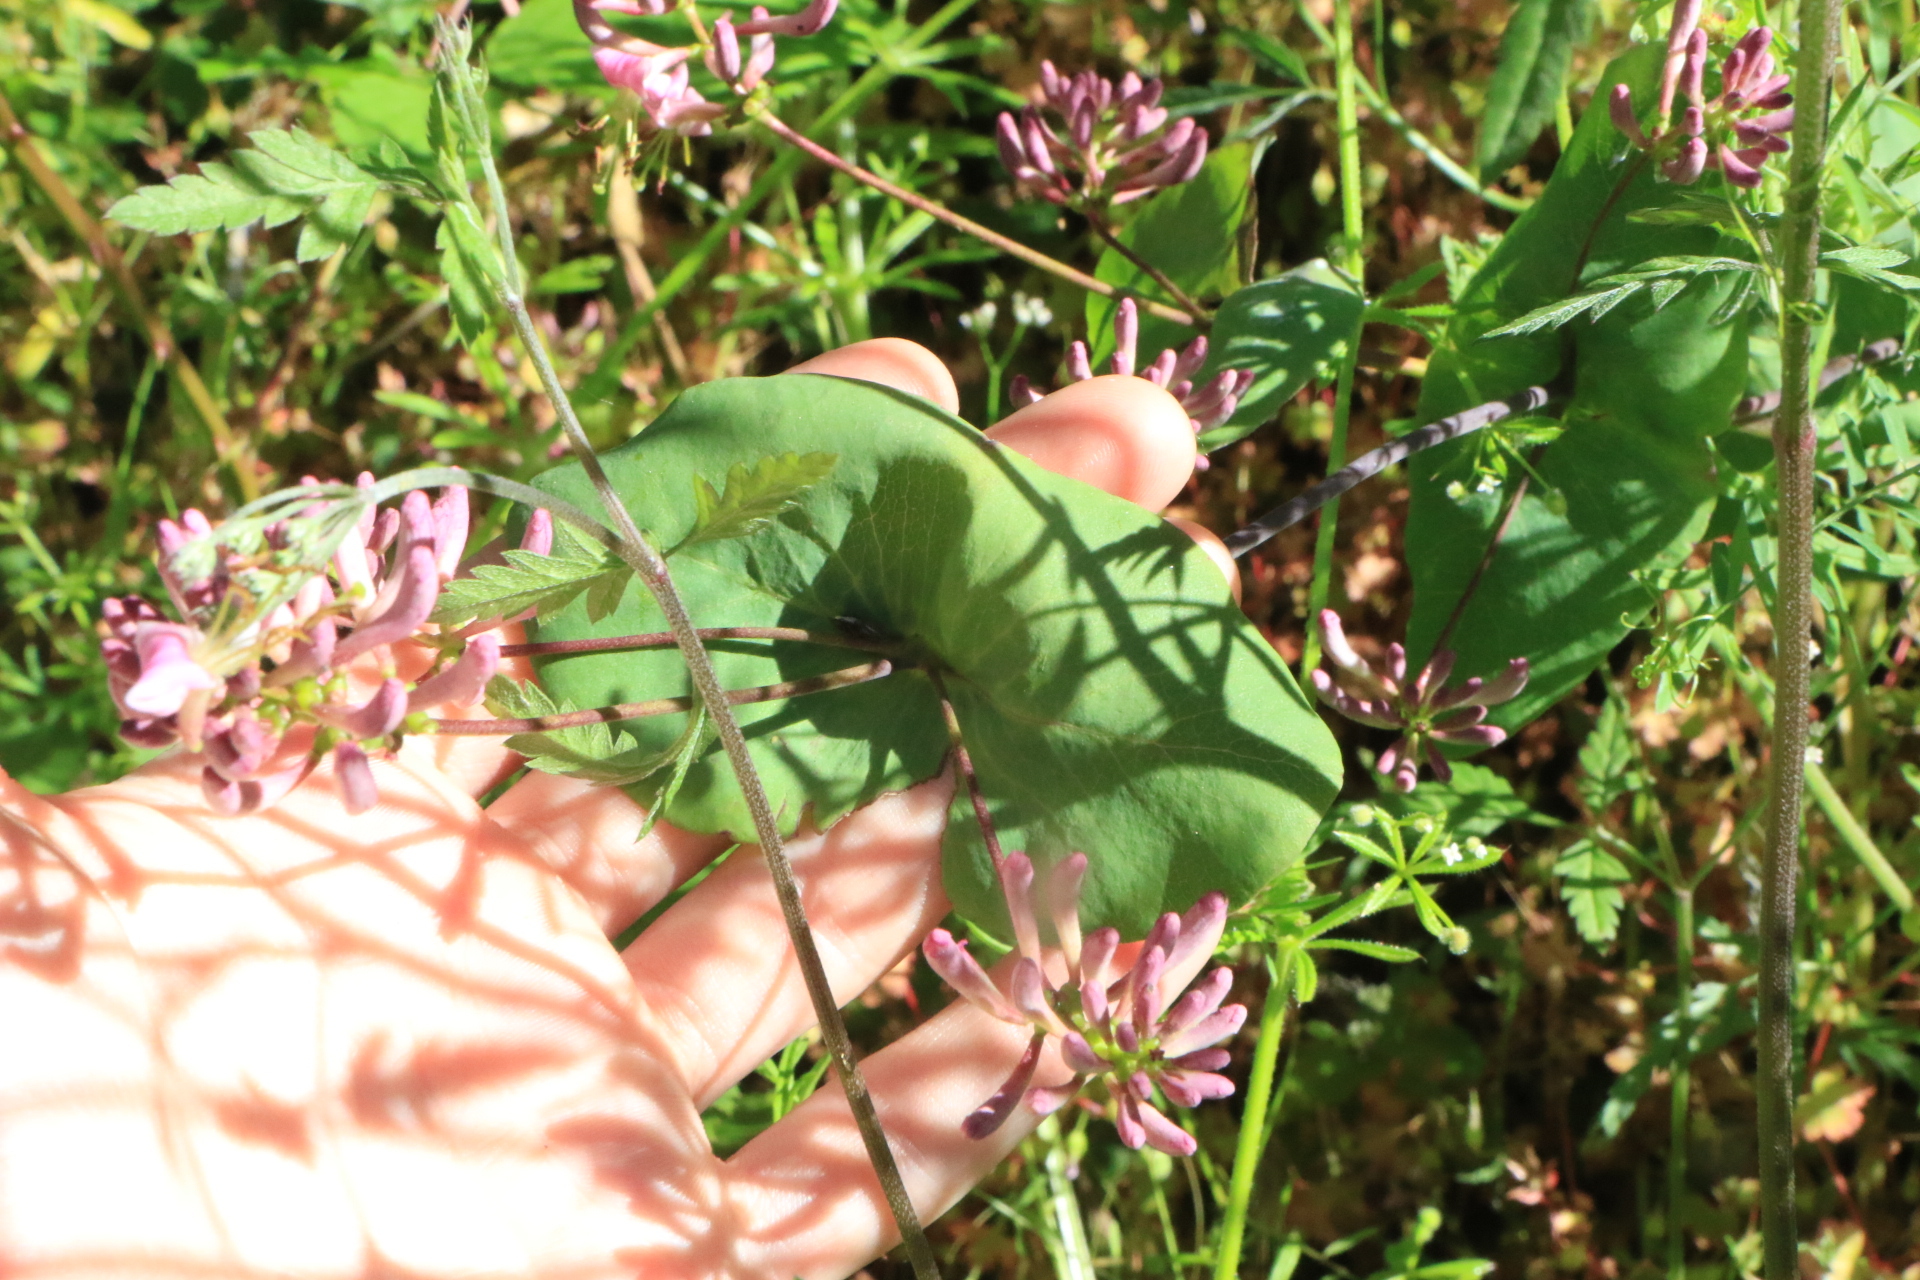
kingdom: Plantae
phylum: Tracheophyta
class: Magnoliopsida
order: Dipsacales
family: Caprifoliaceae
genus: Lonicera
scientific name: Lonicera hispidula
